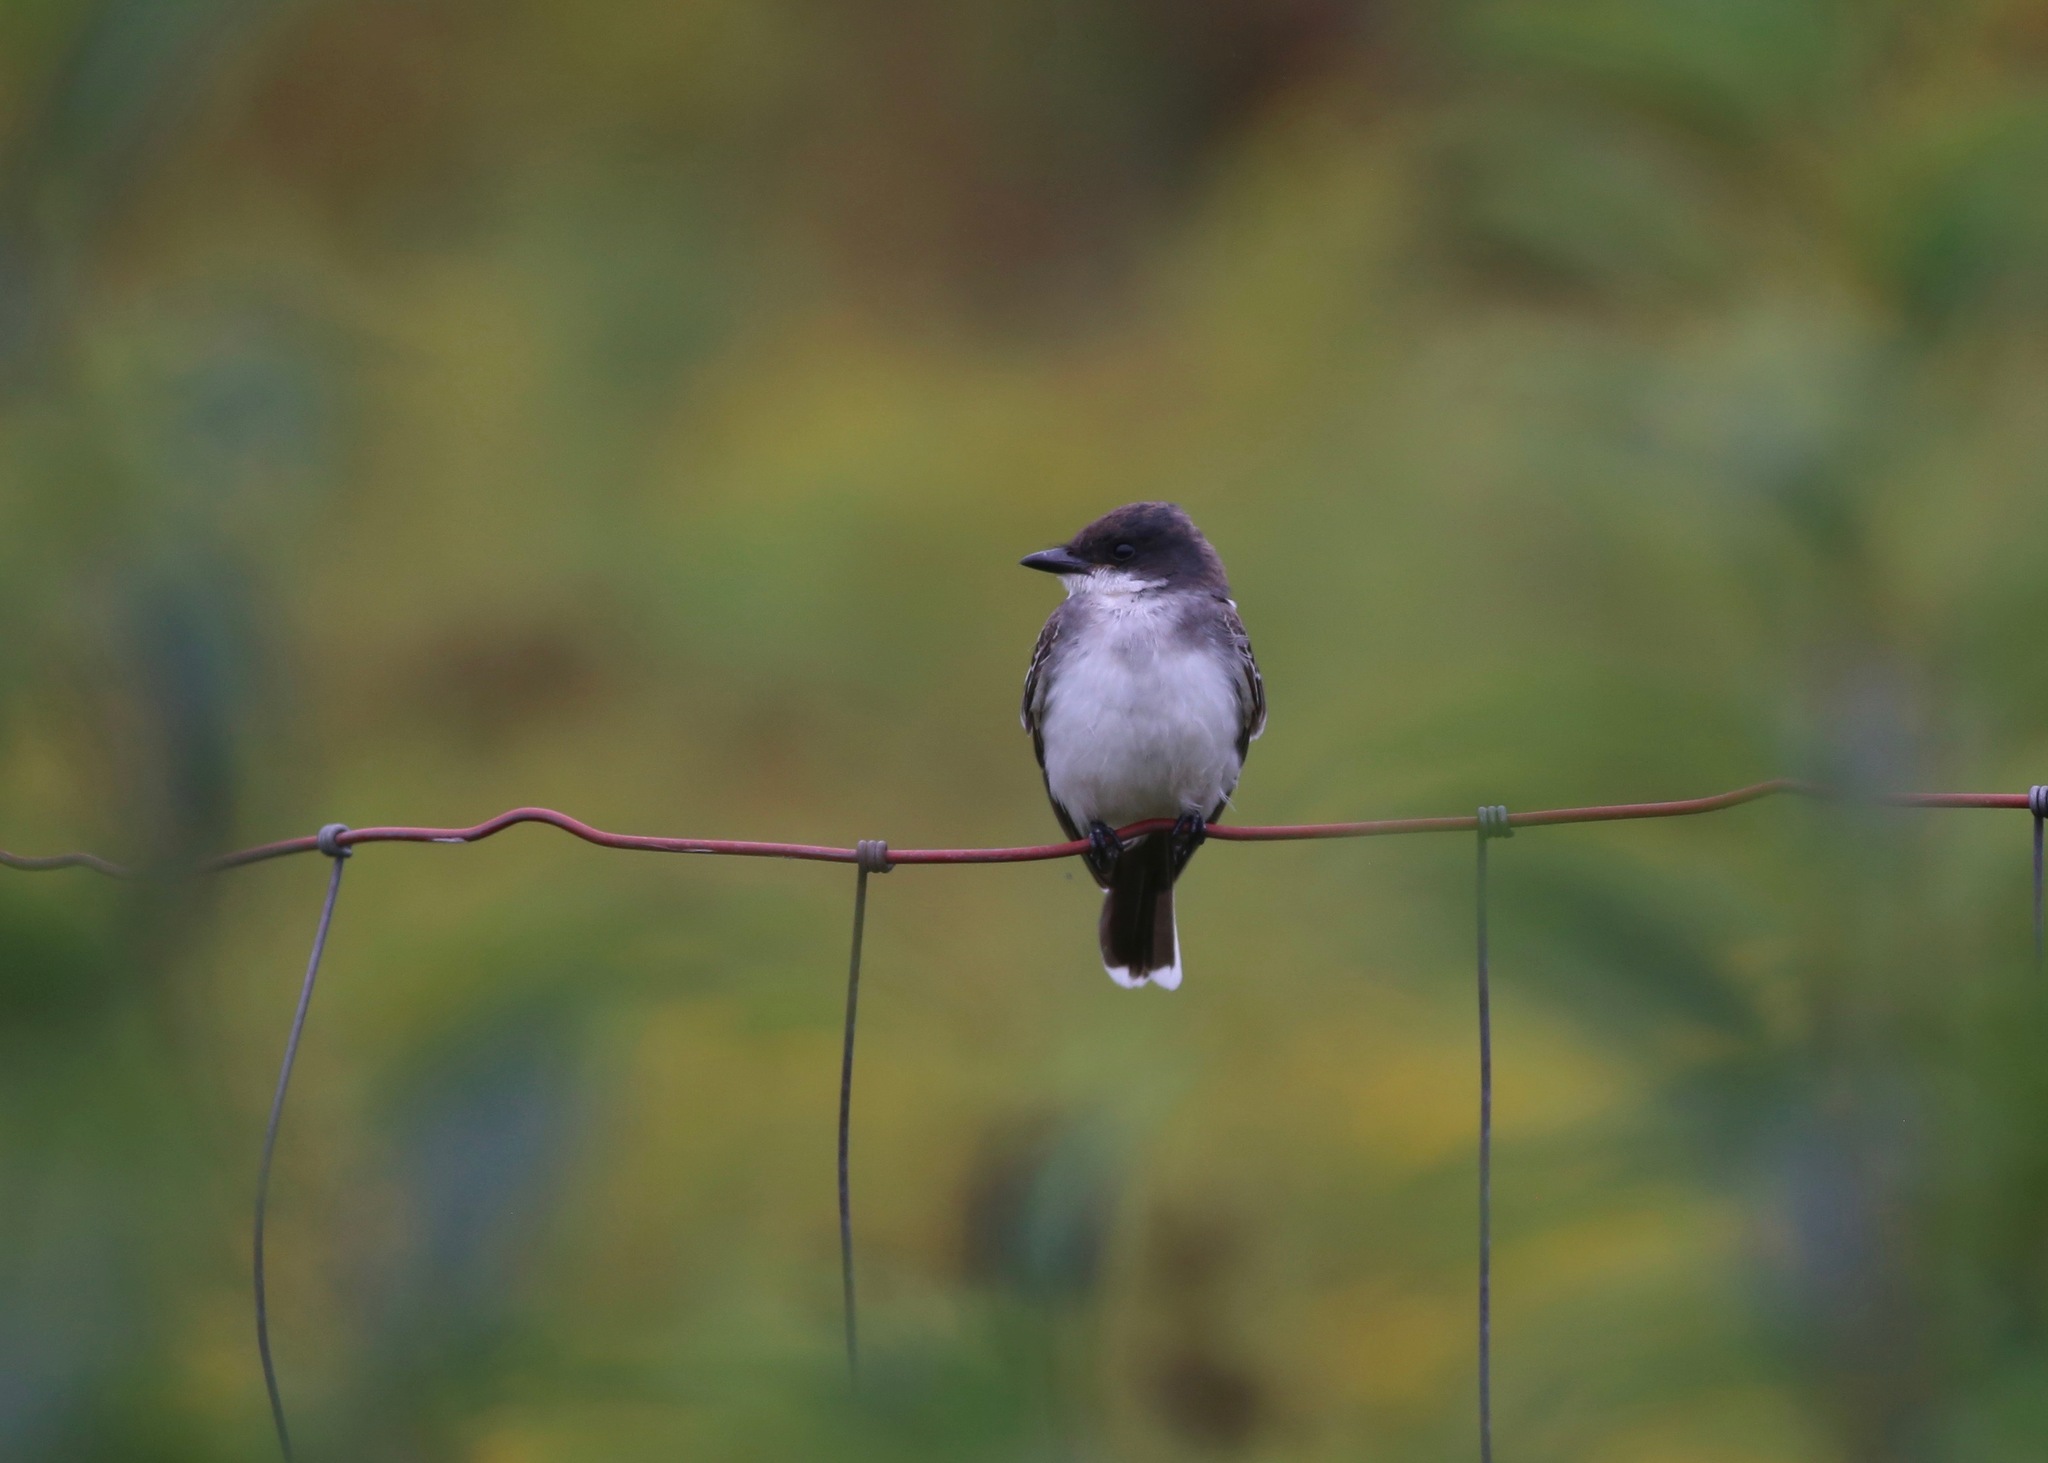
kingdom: Animalia
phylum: Chordata
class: Aves
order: Passeriformes
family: Tyrannidae
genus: Tyrannus
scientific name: Tyrannus tyrannus
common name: Eastern kingbird
